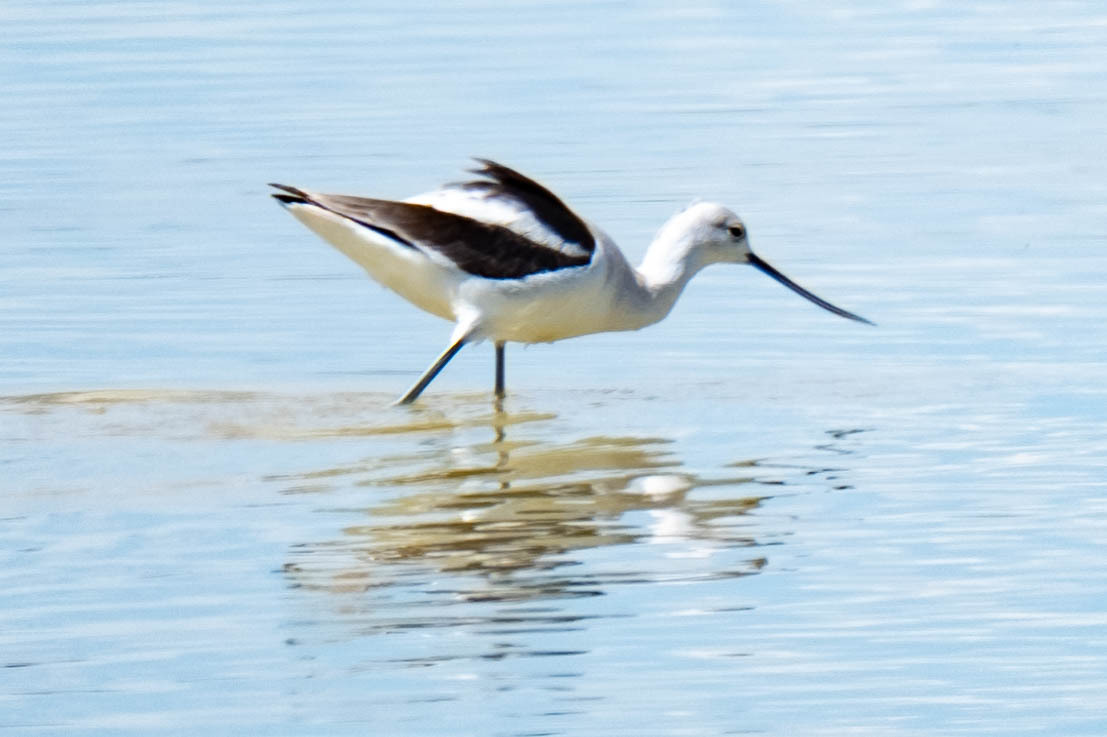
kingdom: Animalia
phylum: Chordata
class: Aves
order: Charadriiformes
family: Recurvirostridae
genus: Recurvirostra
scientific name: Recurvirostra americana
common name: American avocet
